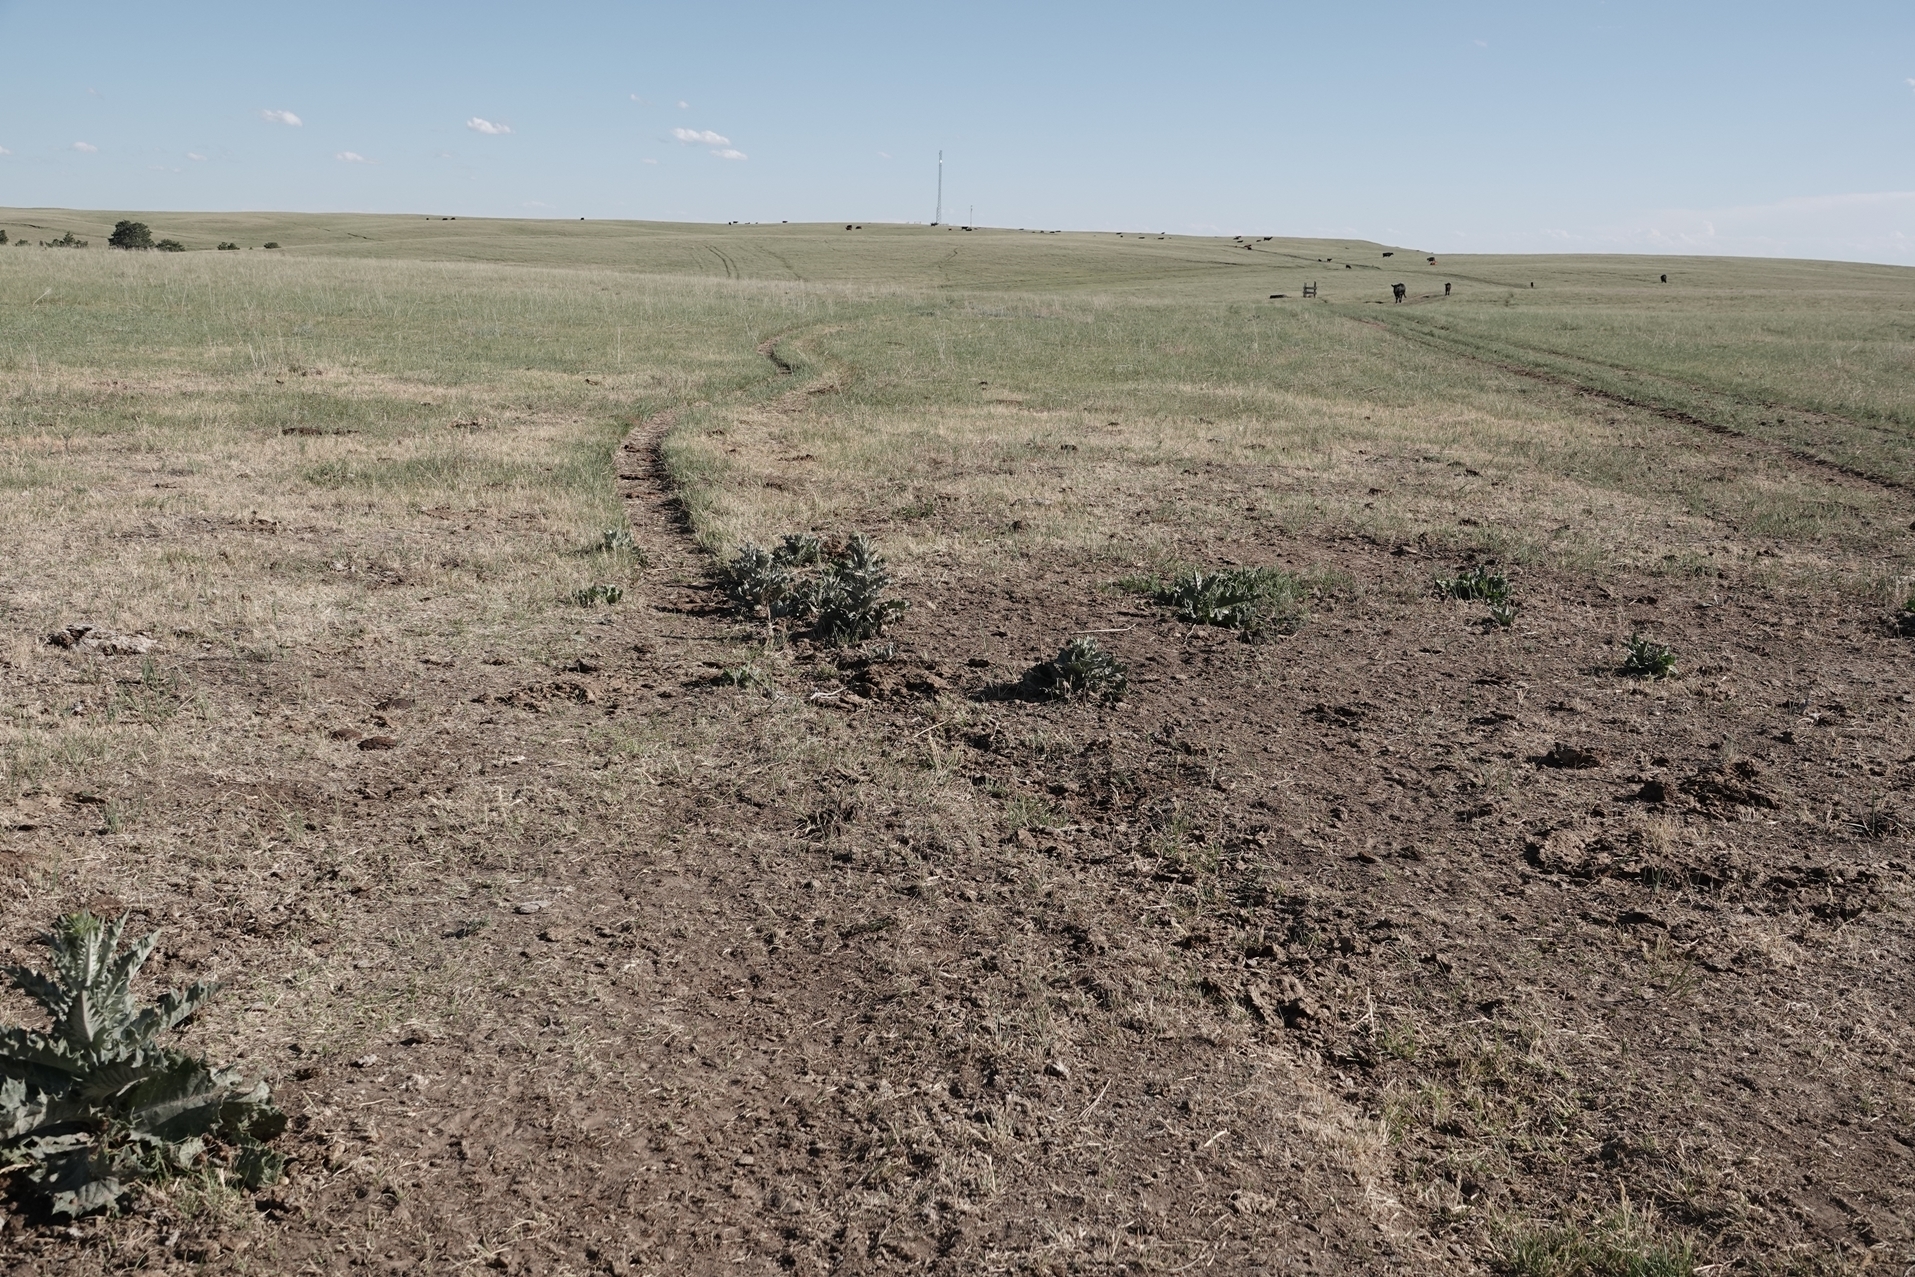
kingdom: Plantae
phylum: Tracheophyta
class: Magnoliopsida
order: Asterales
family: Asteraceae
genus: Onopordum
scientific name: Onopordum acanthium
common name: Scotch thistle
